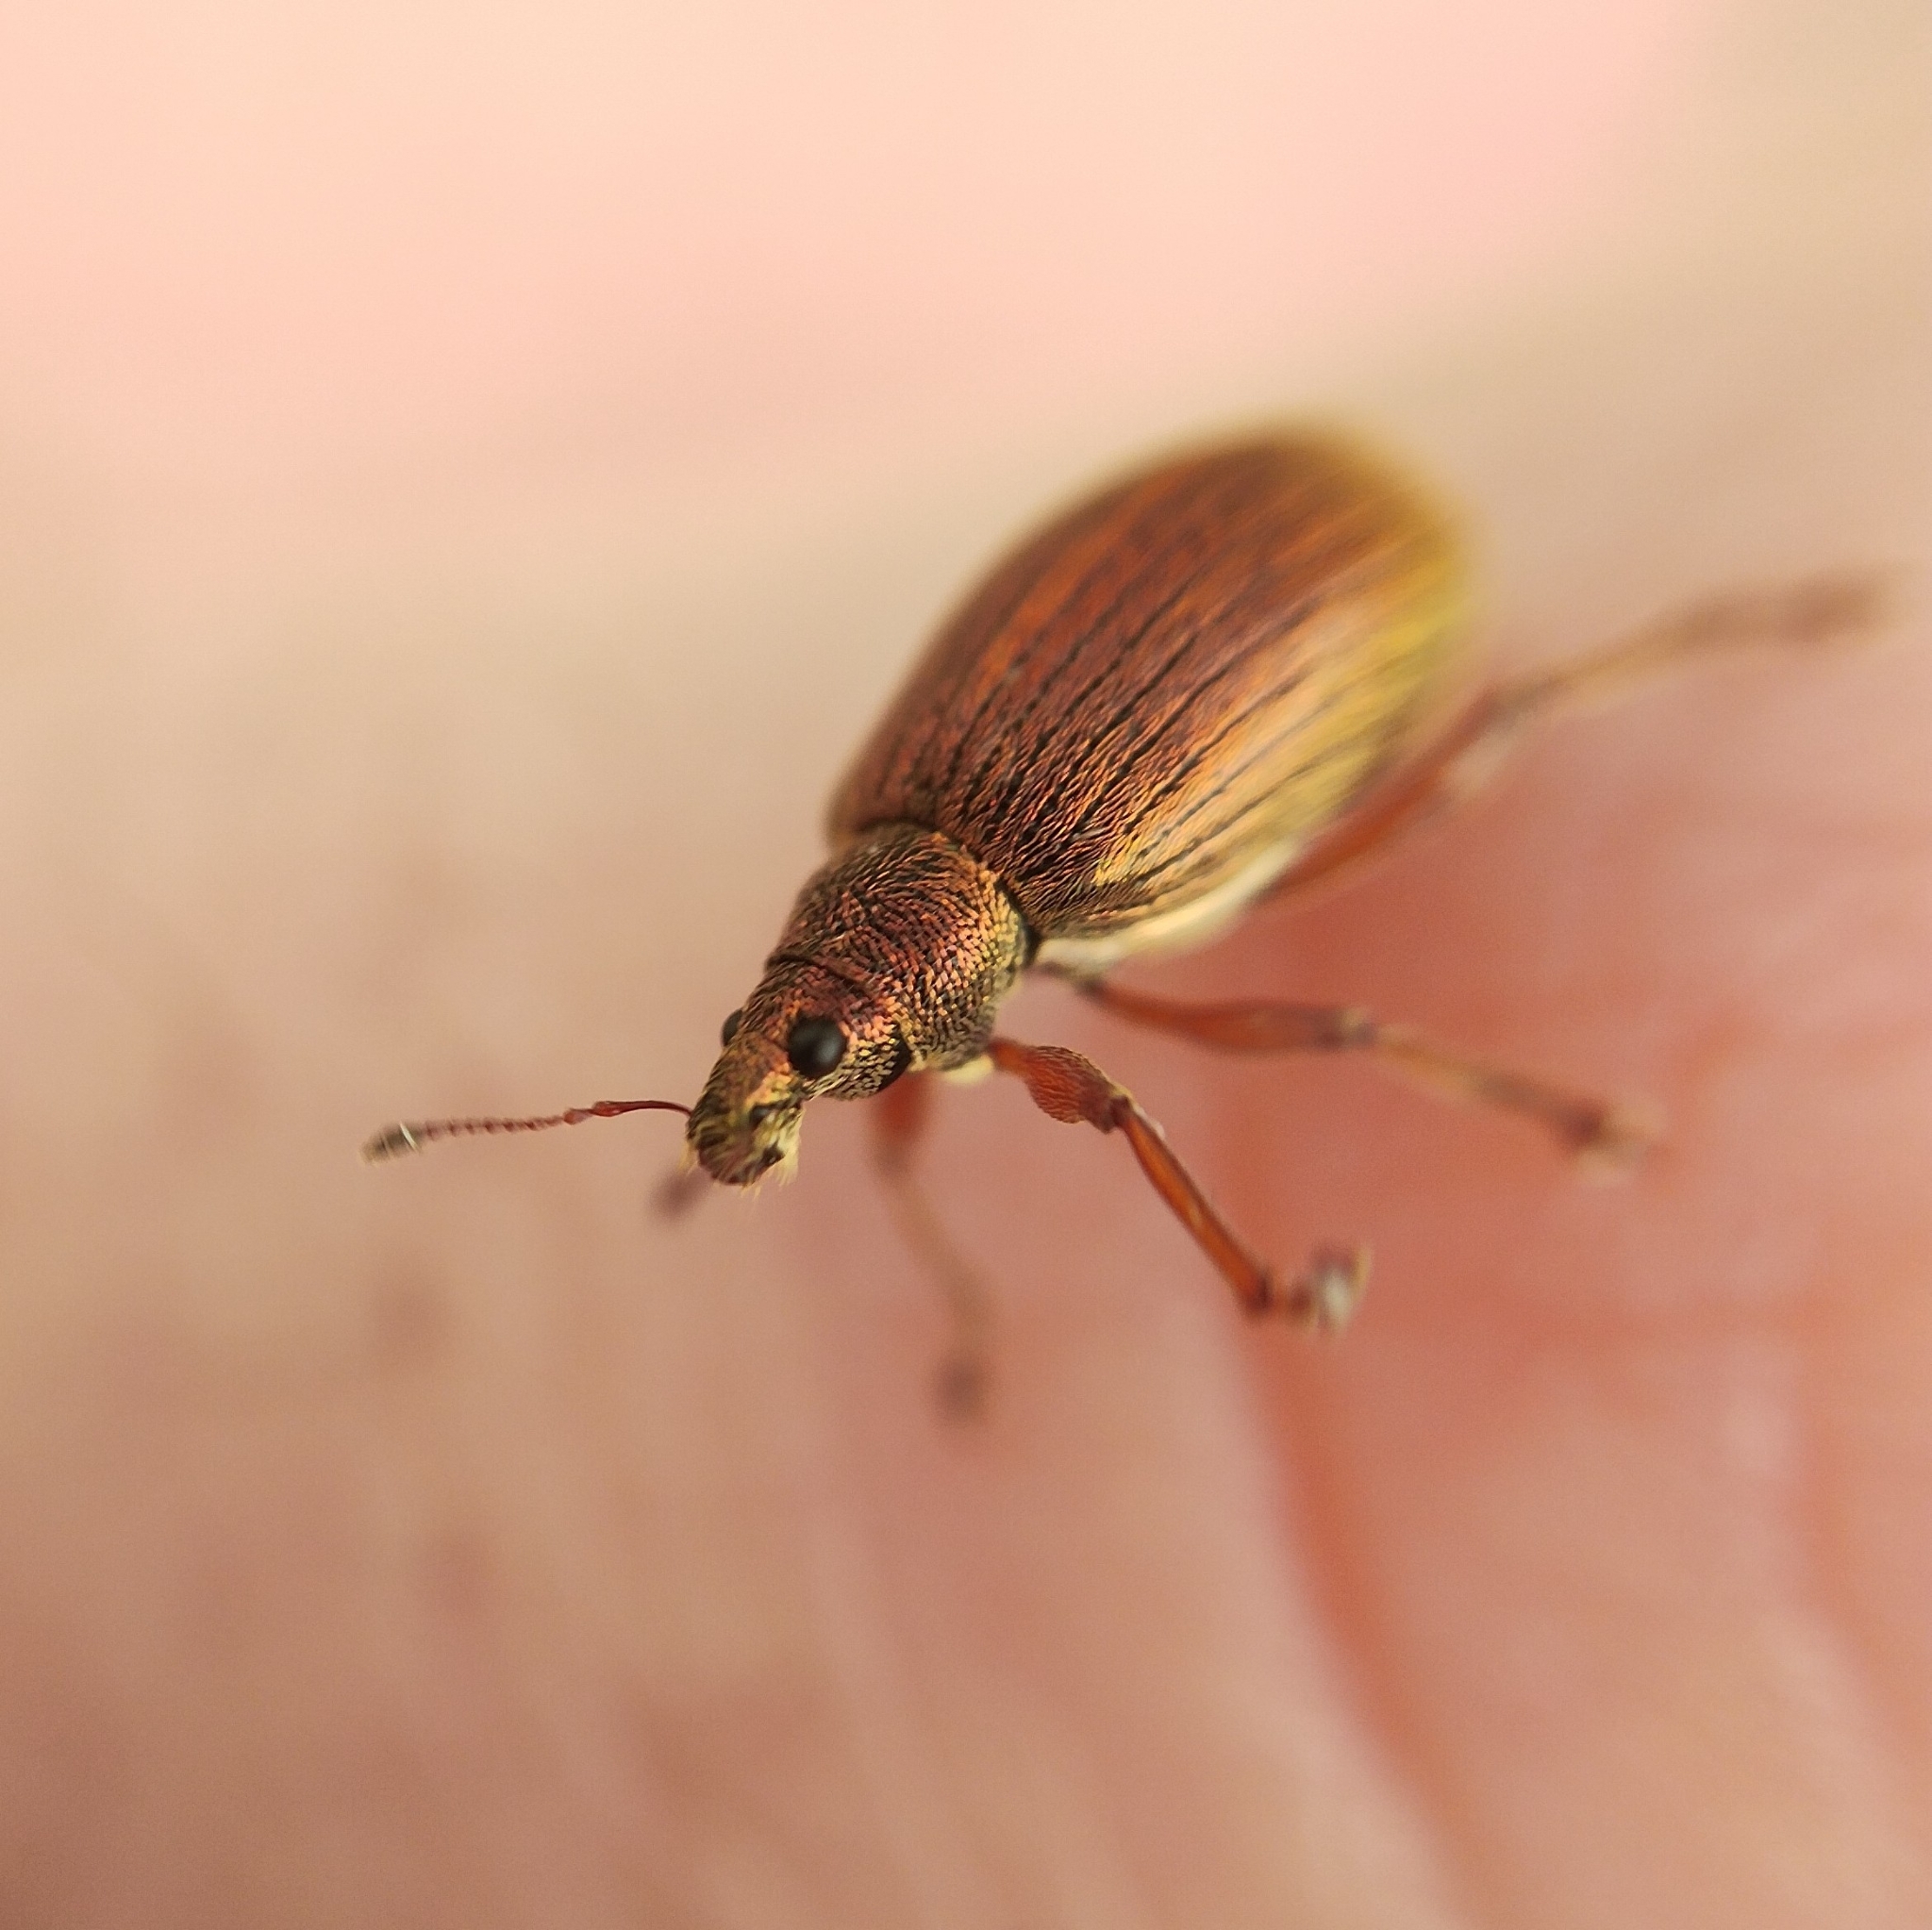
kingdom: Animalia
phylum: Arthropoda
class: Insecta
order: Coleoptera
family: Curculionidae
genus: Polydrusus
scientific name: Polydrusus mollis
